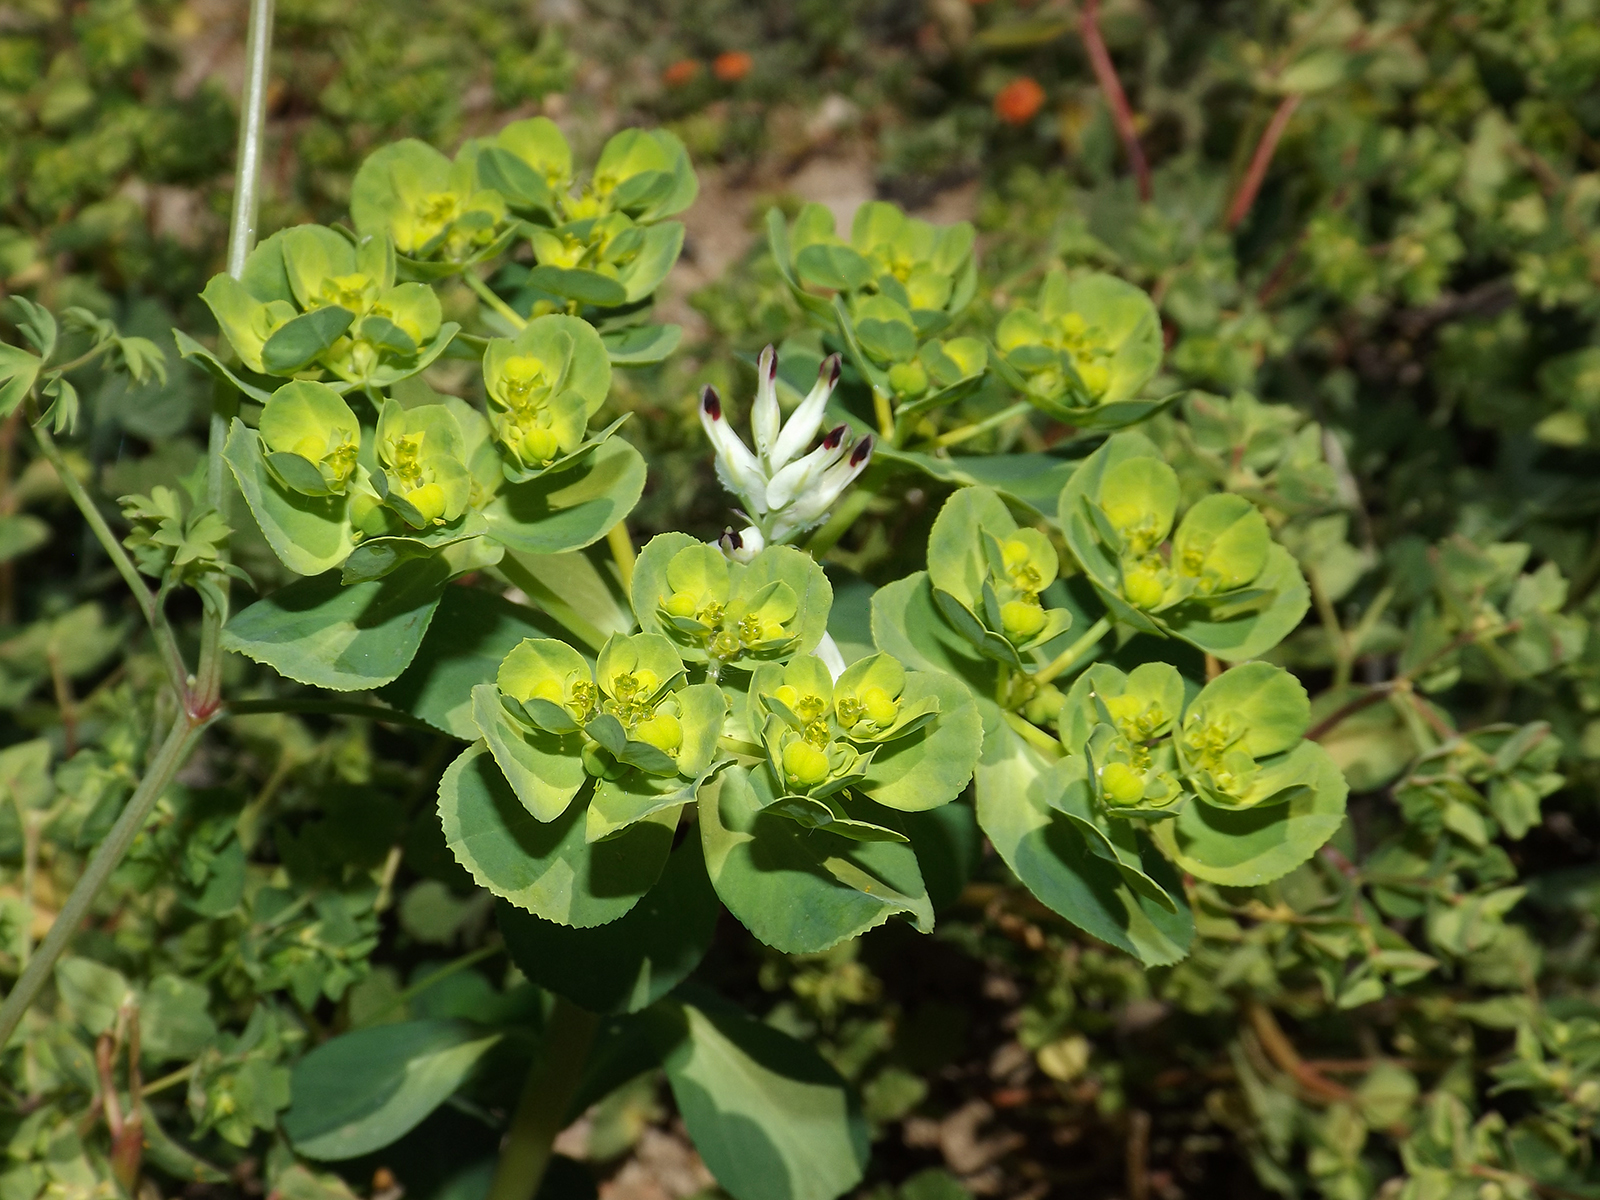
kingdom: Plantae
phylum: Tracheophyta
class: Magnoliopsida
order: Malpighiales
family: Euphorbiaceae
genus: Euphorbia
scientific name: Euphorbia helioscopia
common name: Sun spurge
